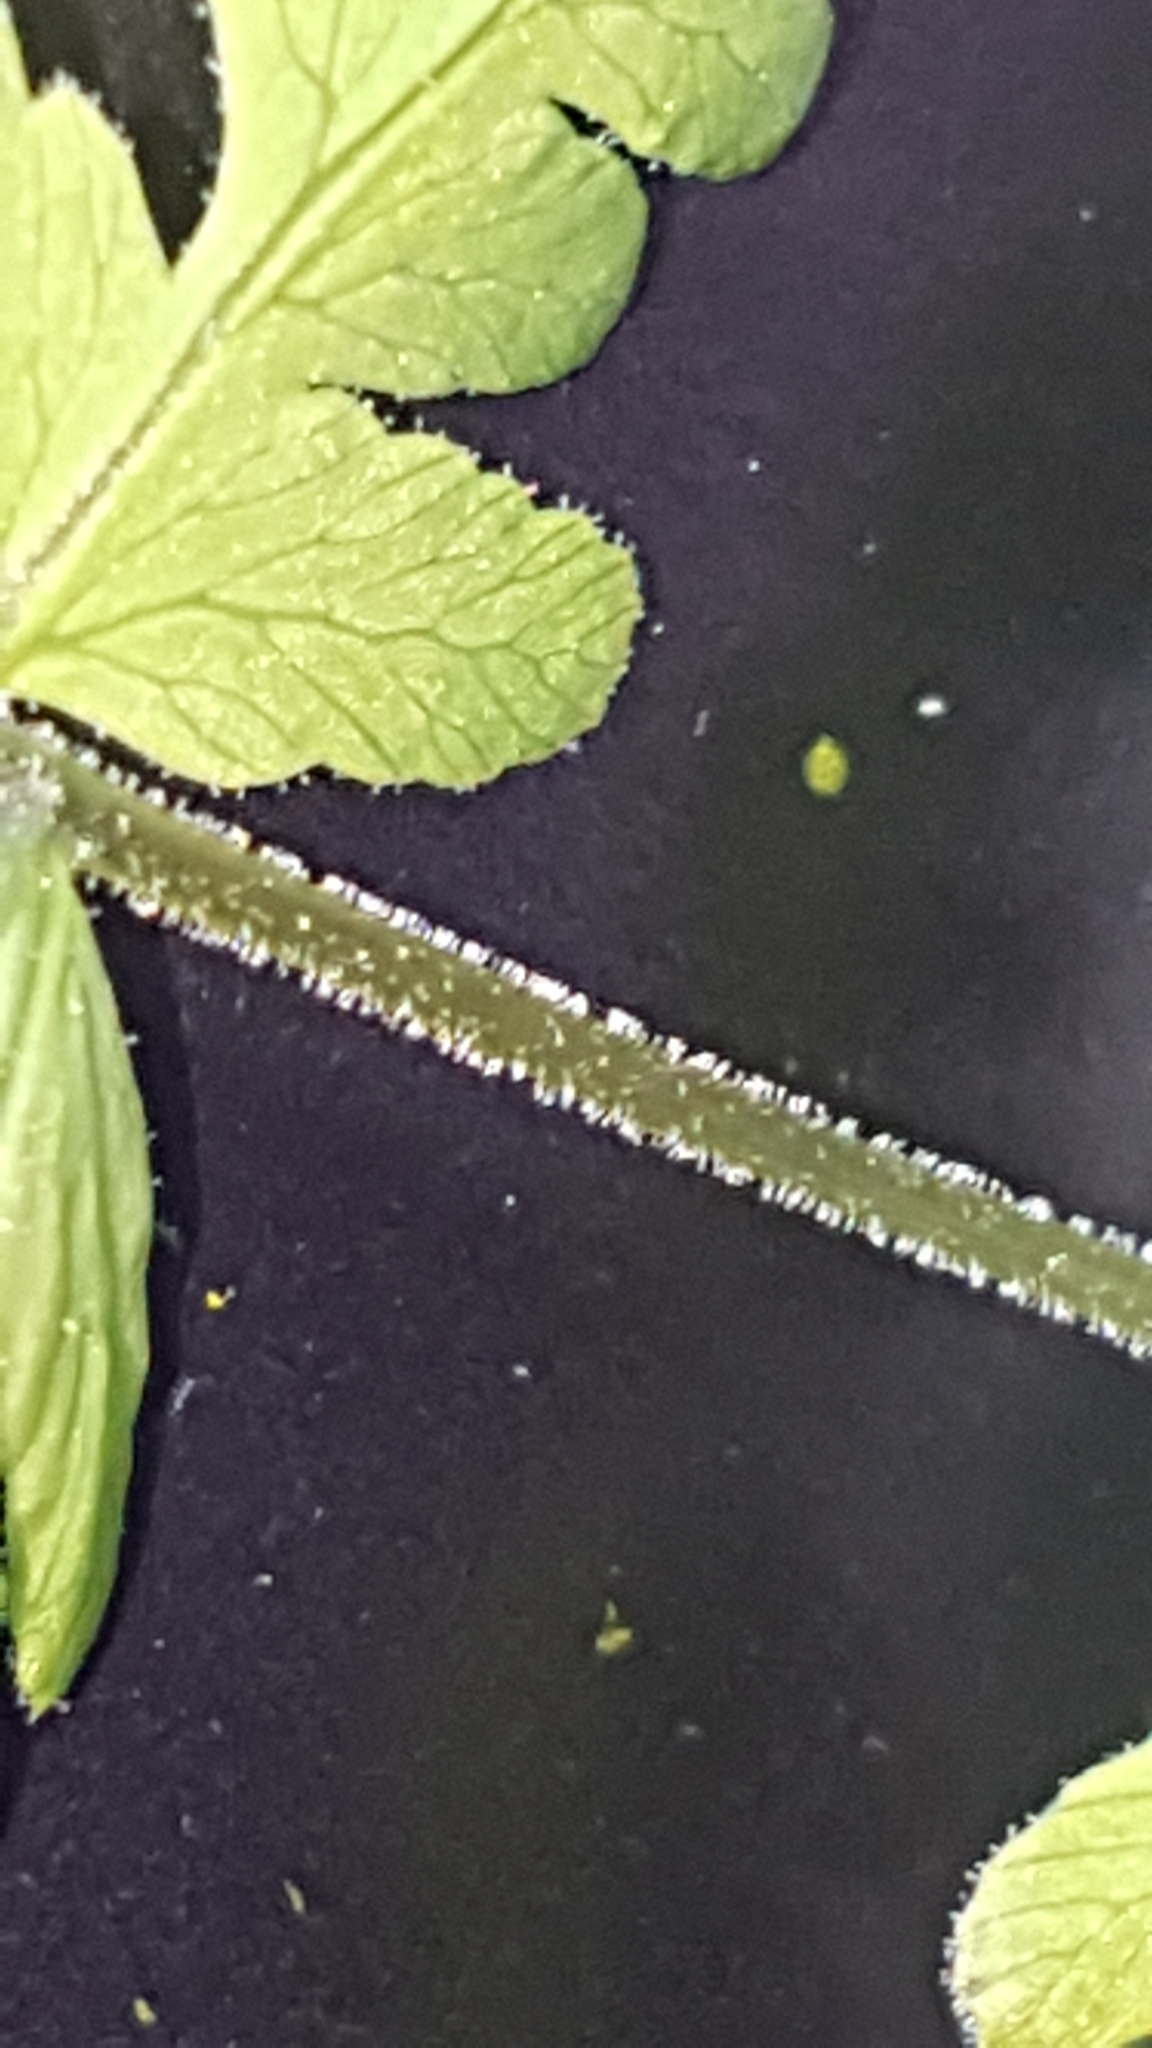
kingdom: Plantae
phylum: Tracheophyta
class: Polypodiopsida
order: Polypodiales
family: Cystopteridaceae
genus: Gymnocarpium
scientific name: Gymnocarpium jessoense
